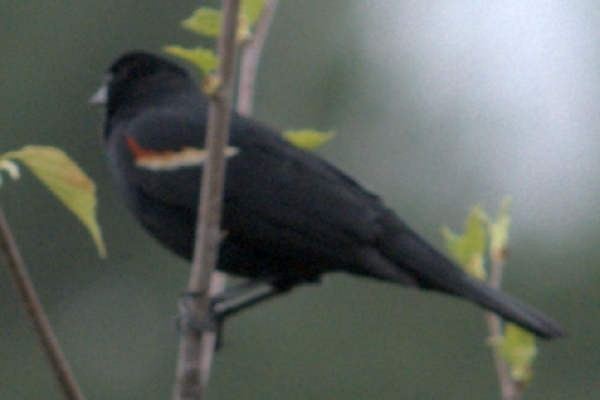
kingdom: Animalia
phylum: Chordata
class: Aves
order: Passeriformes
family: Icteridae
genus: Agelaius
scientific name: Agelaius phoeniceus
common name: Red-winged blackbird
